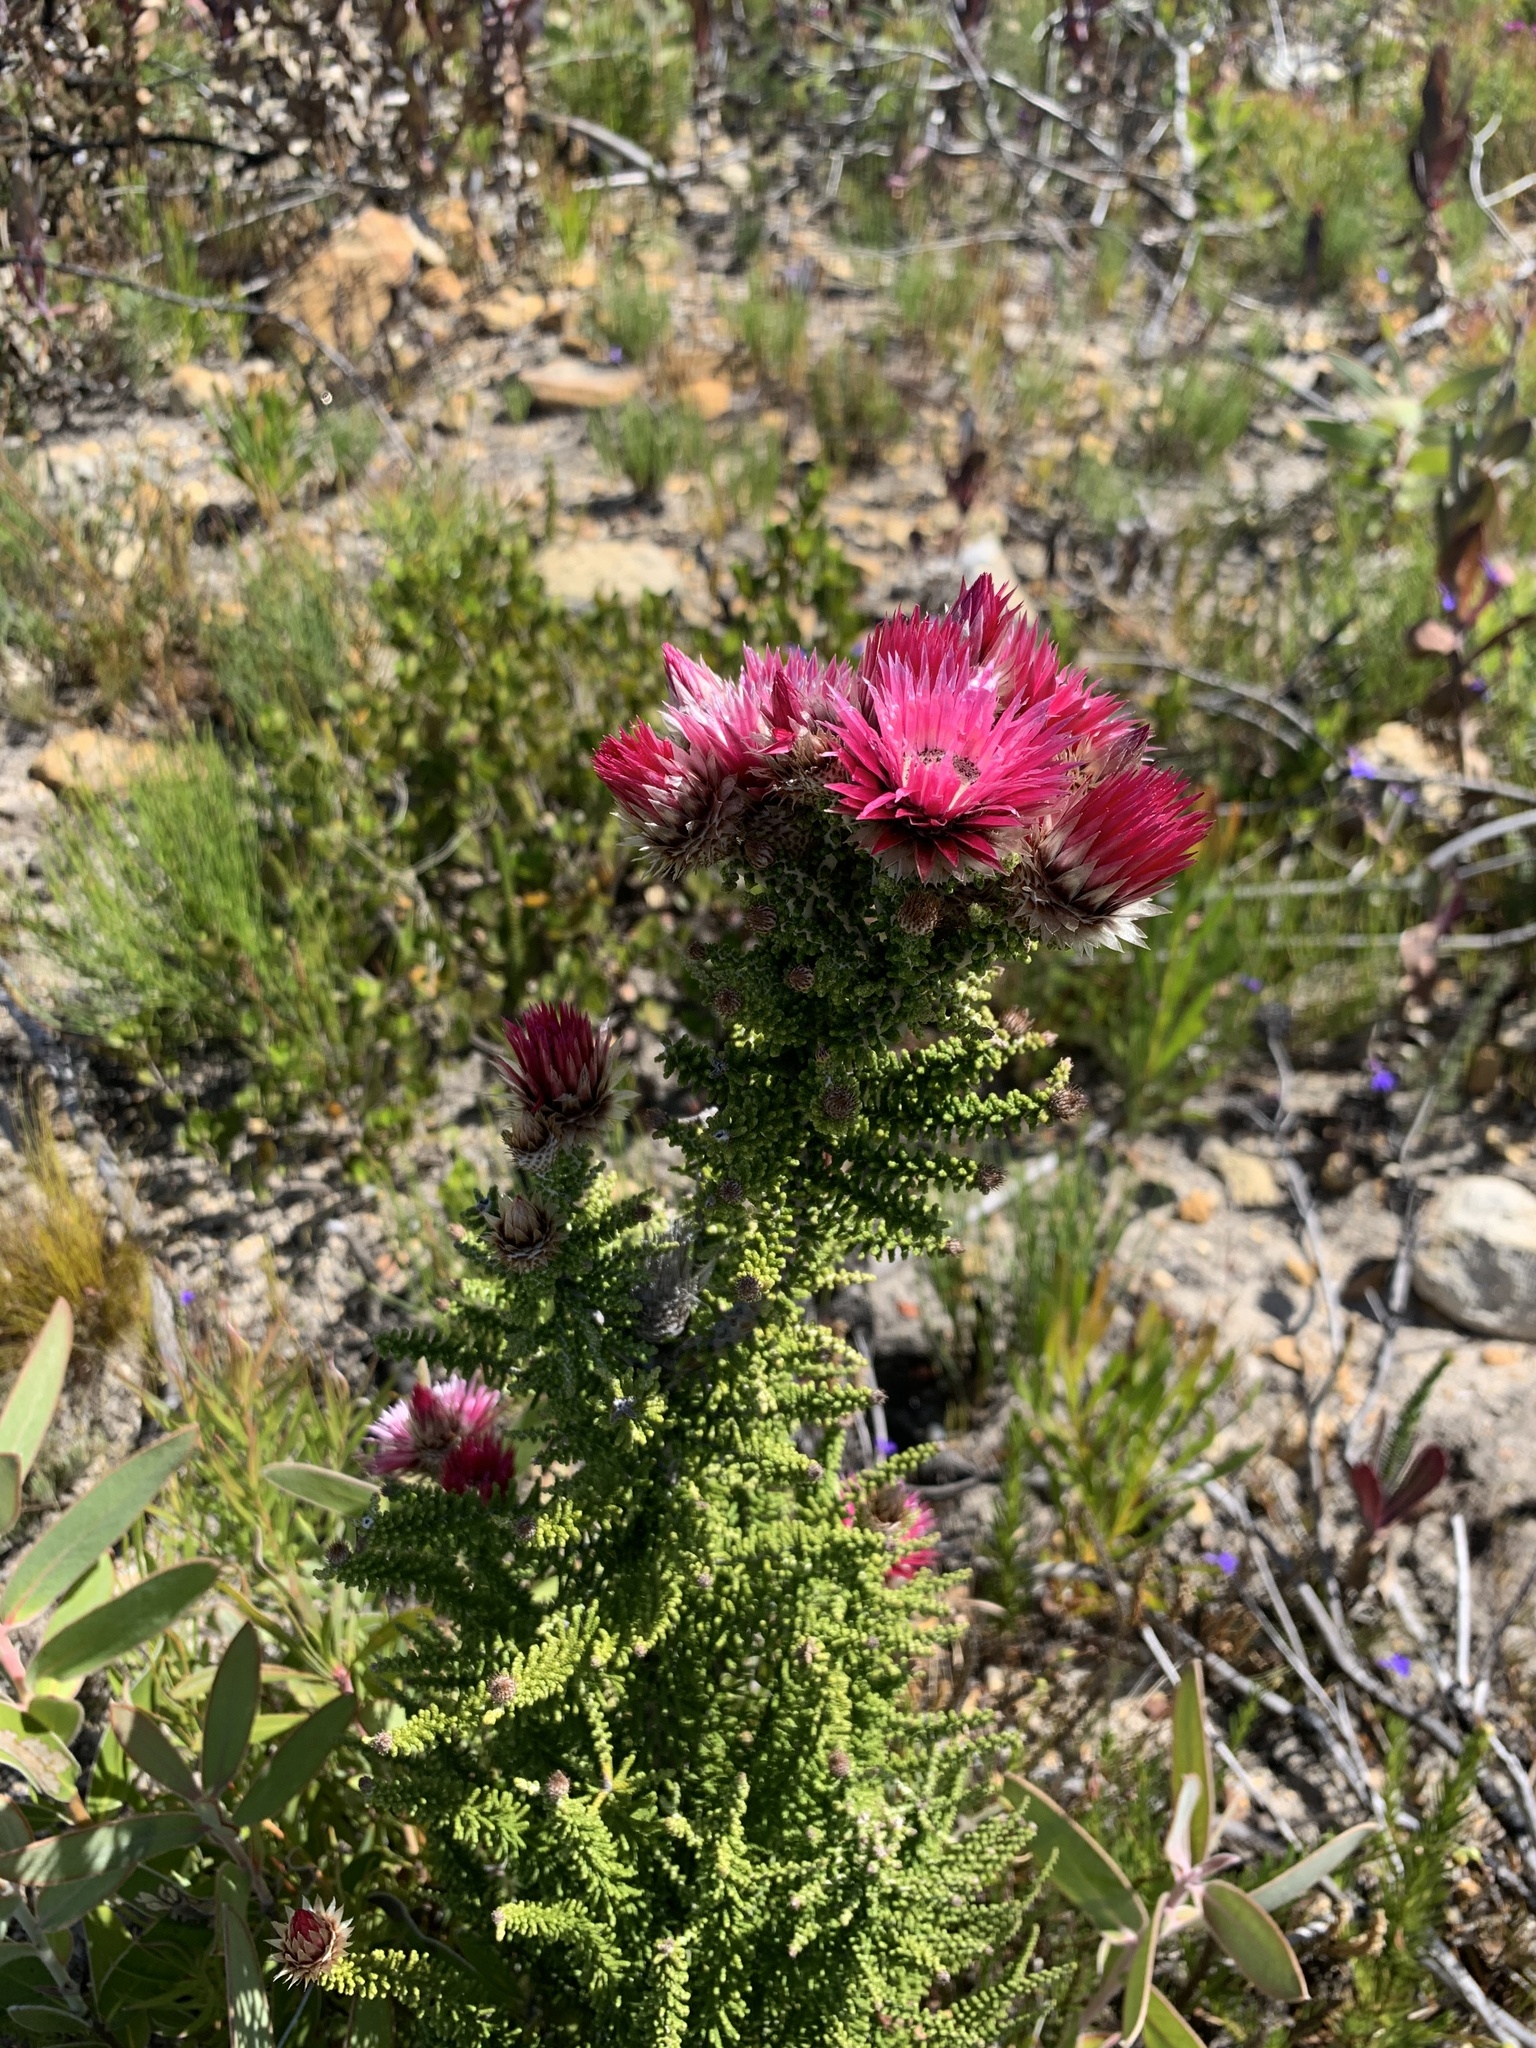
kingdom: Plantae
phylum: Tracheophyta
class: Magnoliopsida
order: Asterales
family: Asteraceae
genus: Phaenocoma
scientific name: Phaenocoma prolifera
